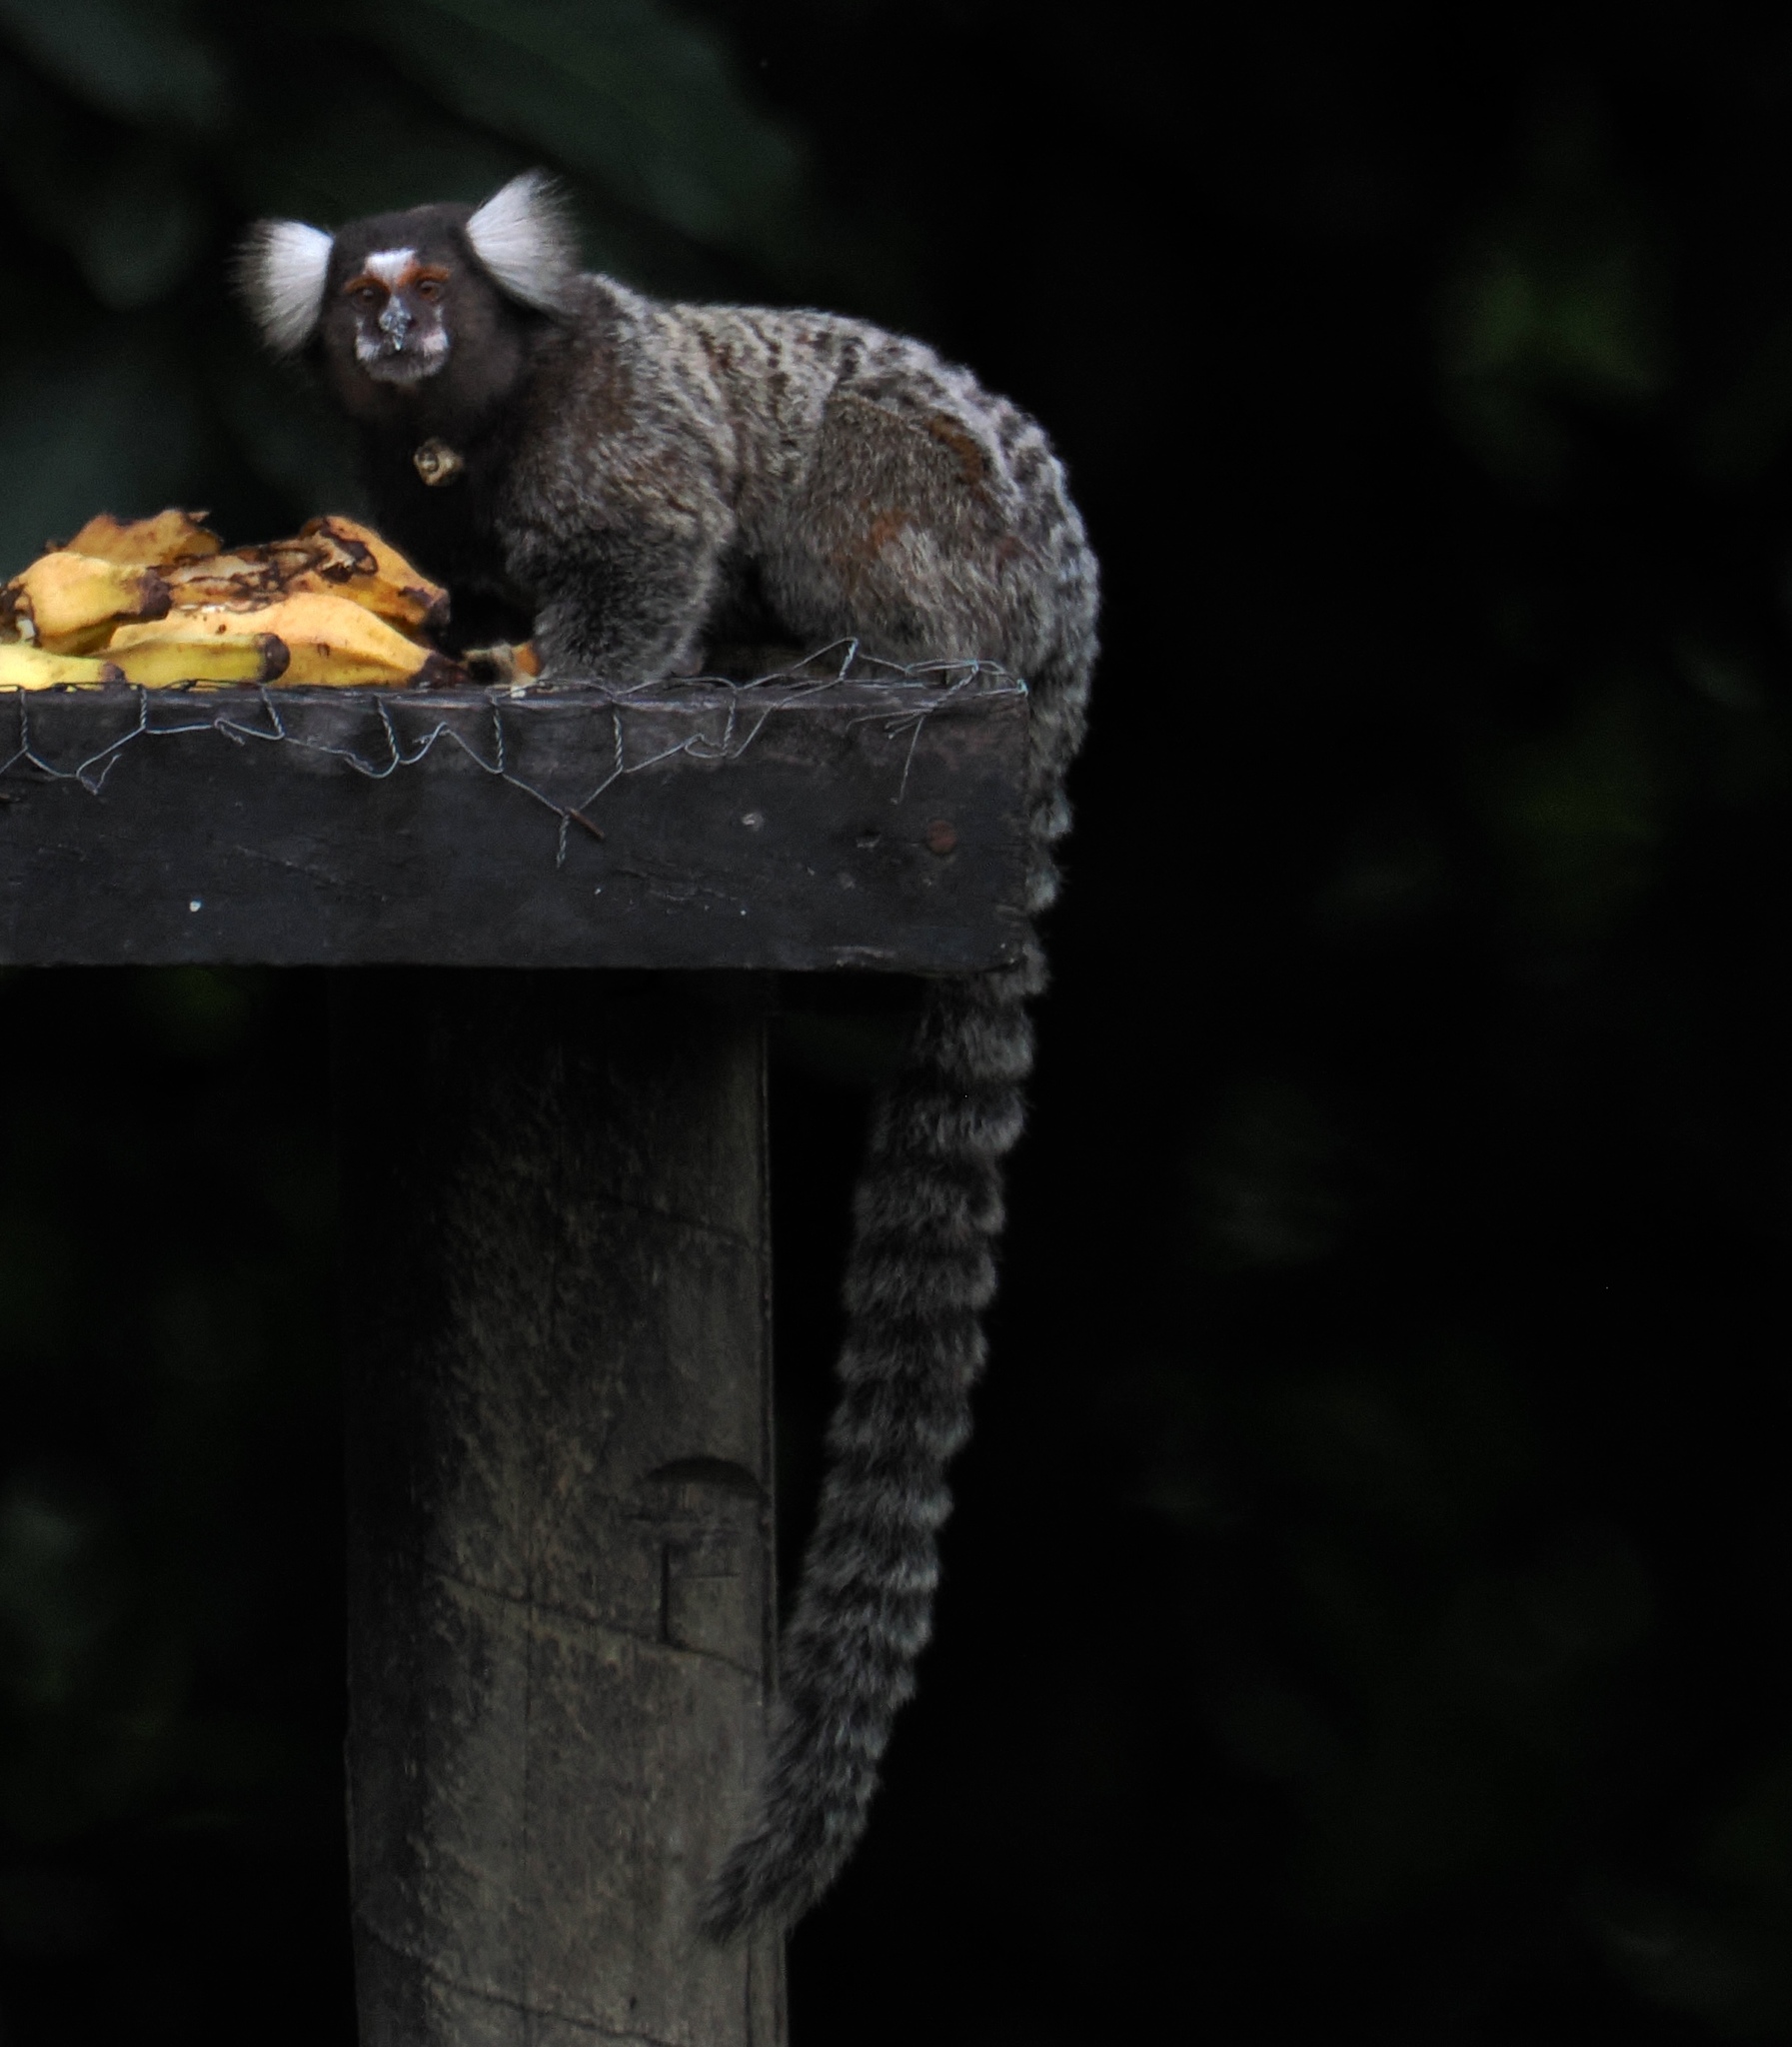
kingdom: Animalia
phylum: Chordata
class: Mammalia
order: Primates
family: Callitrichidae
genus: Callithrix
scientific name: Callithrix jacchus
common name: Common marmoset
